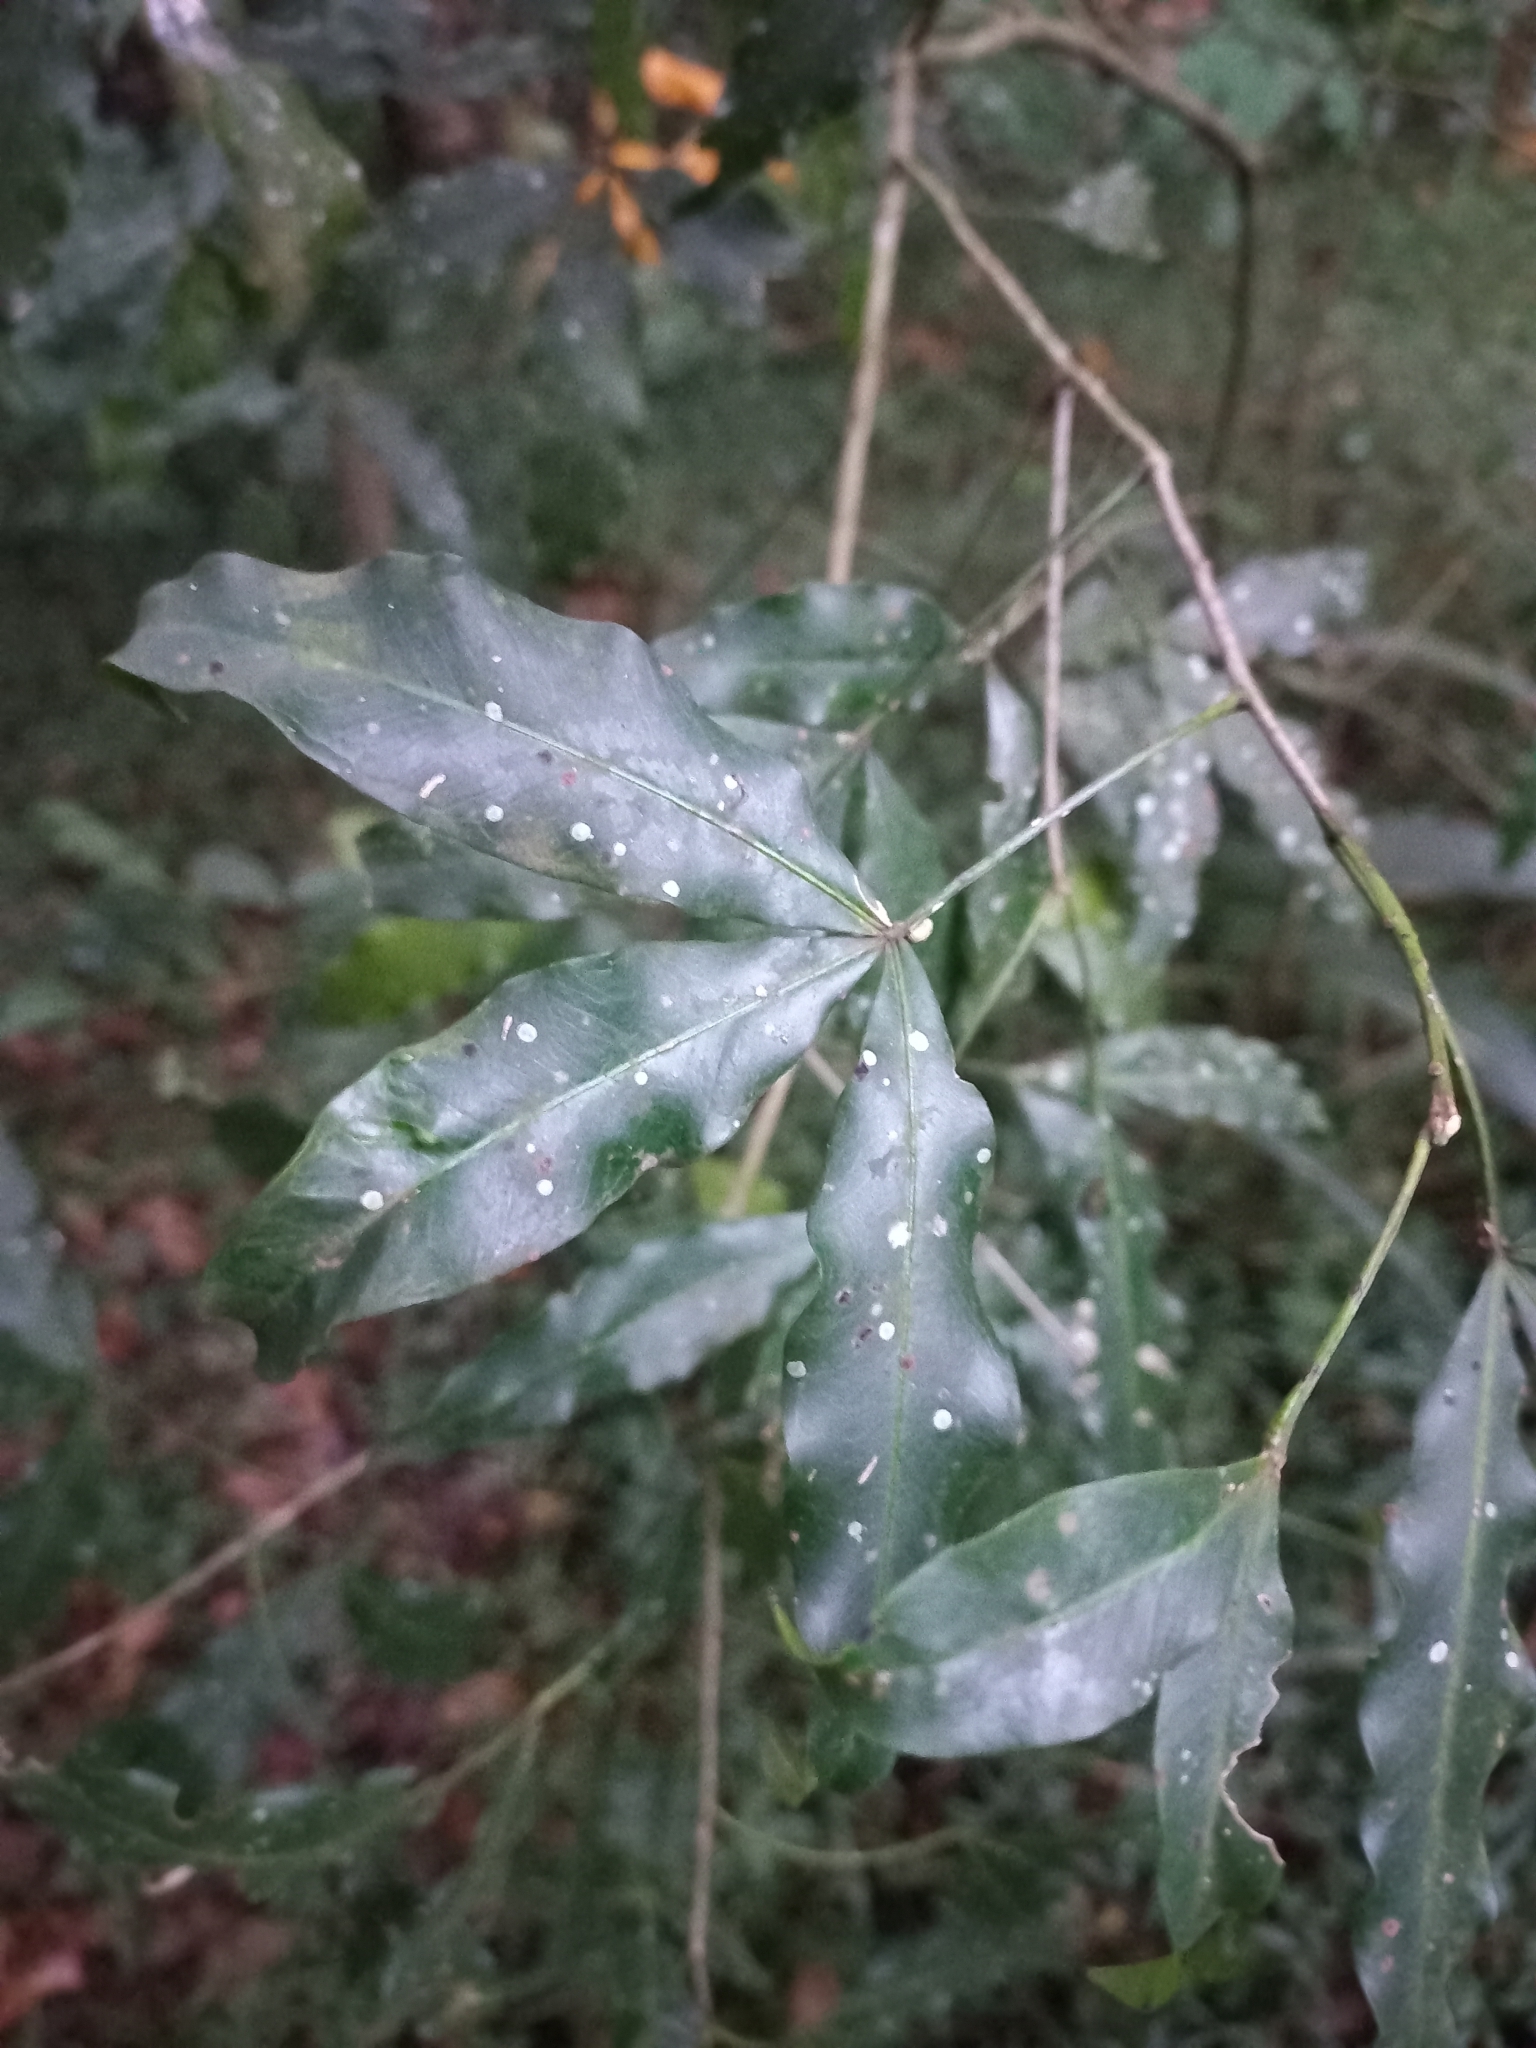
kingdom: Plantae
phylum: Tracheophyta
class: Magnoliopsida
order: Sapindales
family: Rutaceae
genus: Vepris
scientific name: Vepris lanceolata
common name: White ironwood
